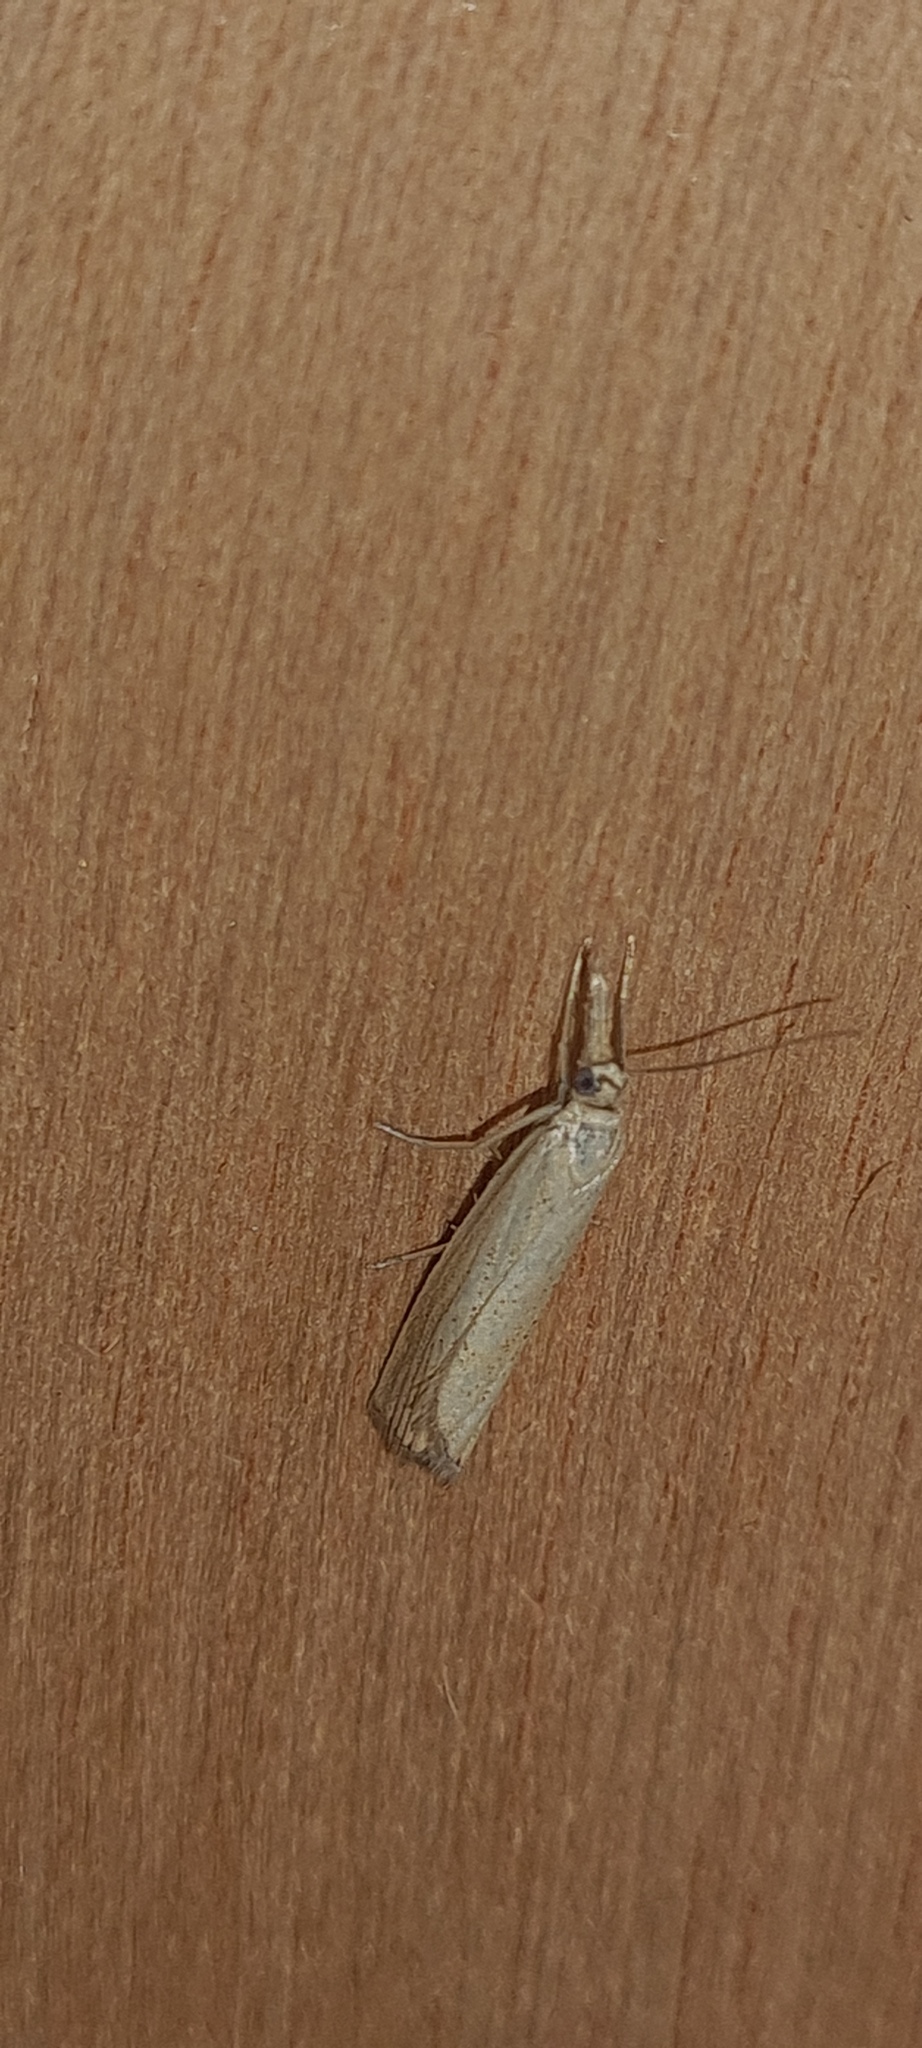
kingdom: Animalia
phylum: Arthropoda
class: Insecta
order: Lepidoptera
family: Crambidae
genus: Agriphila
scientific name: Agriphila straminella
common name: Straw grass-veneer
